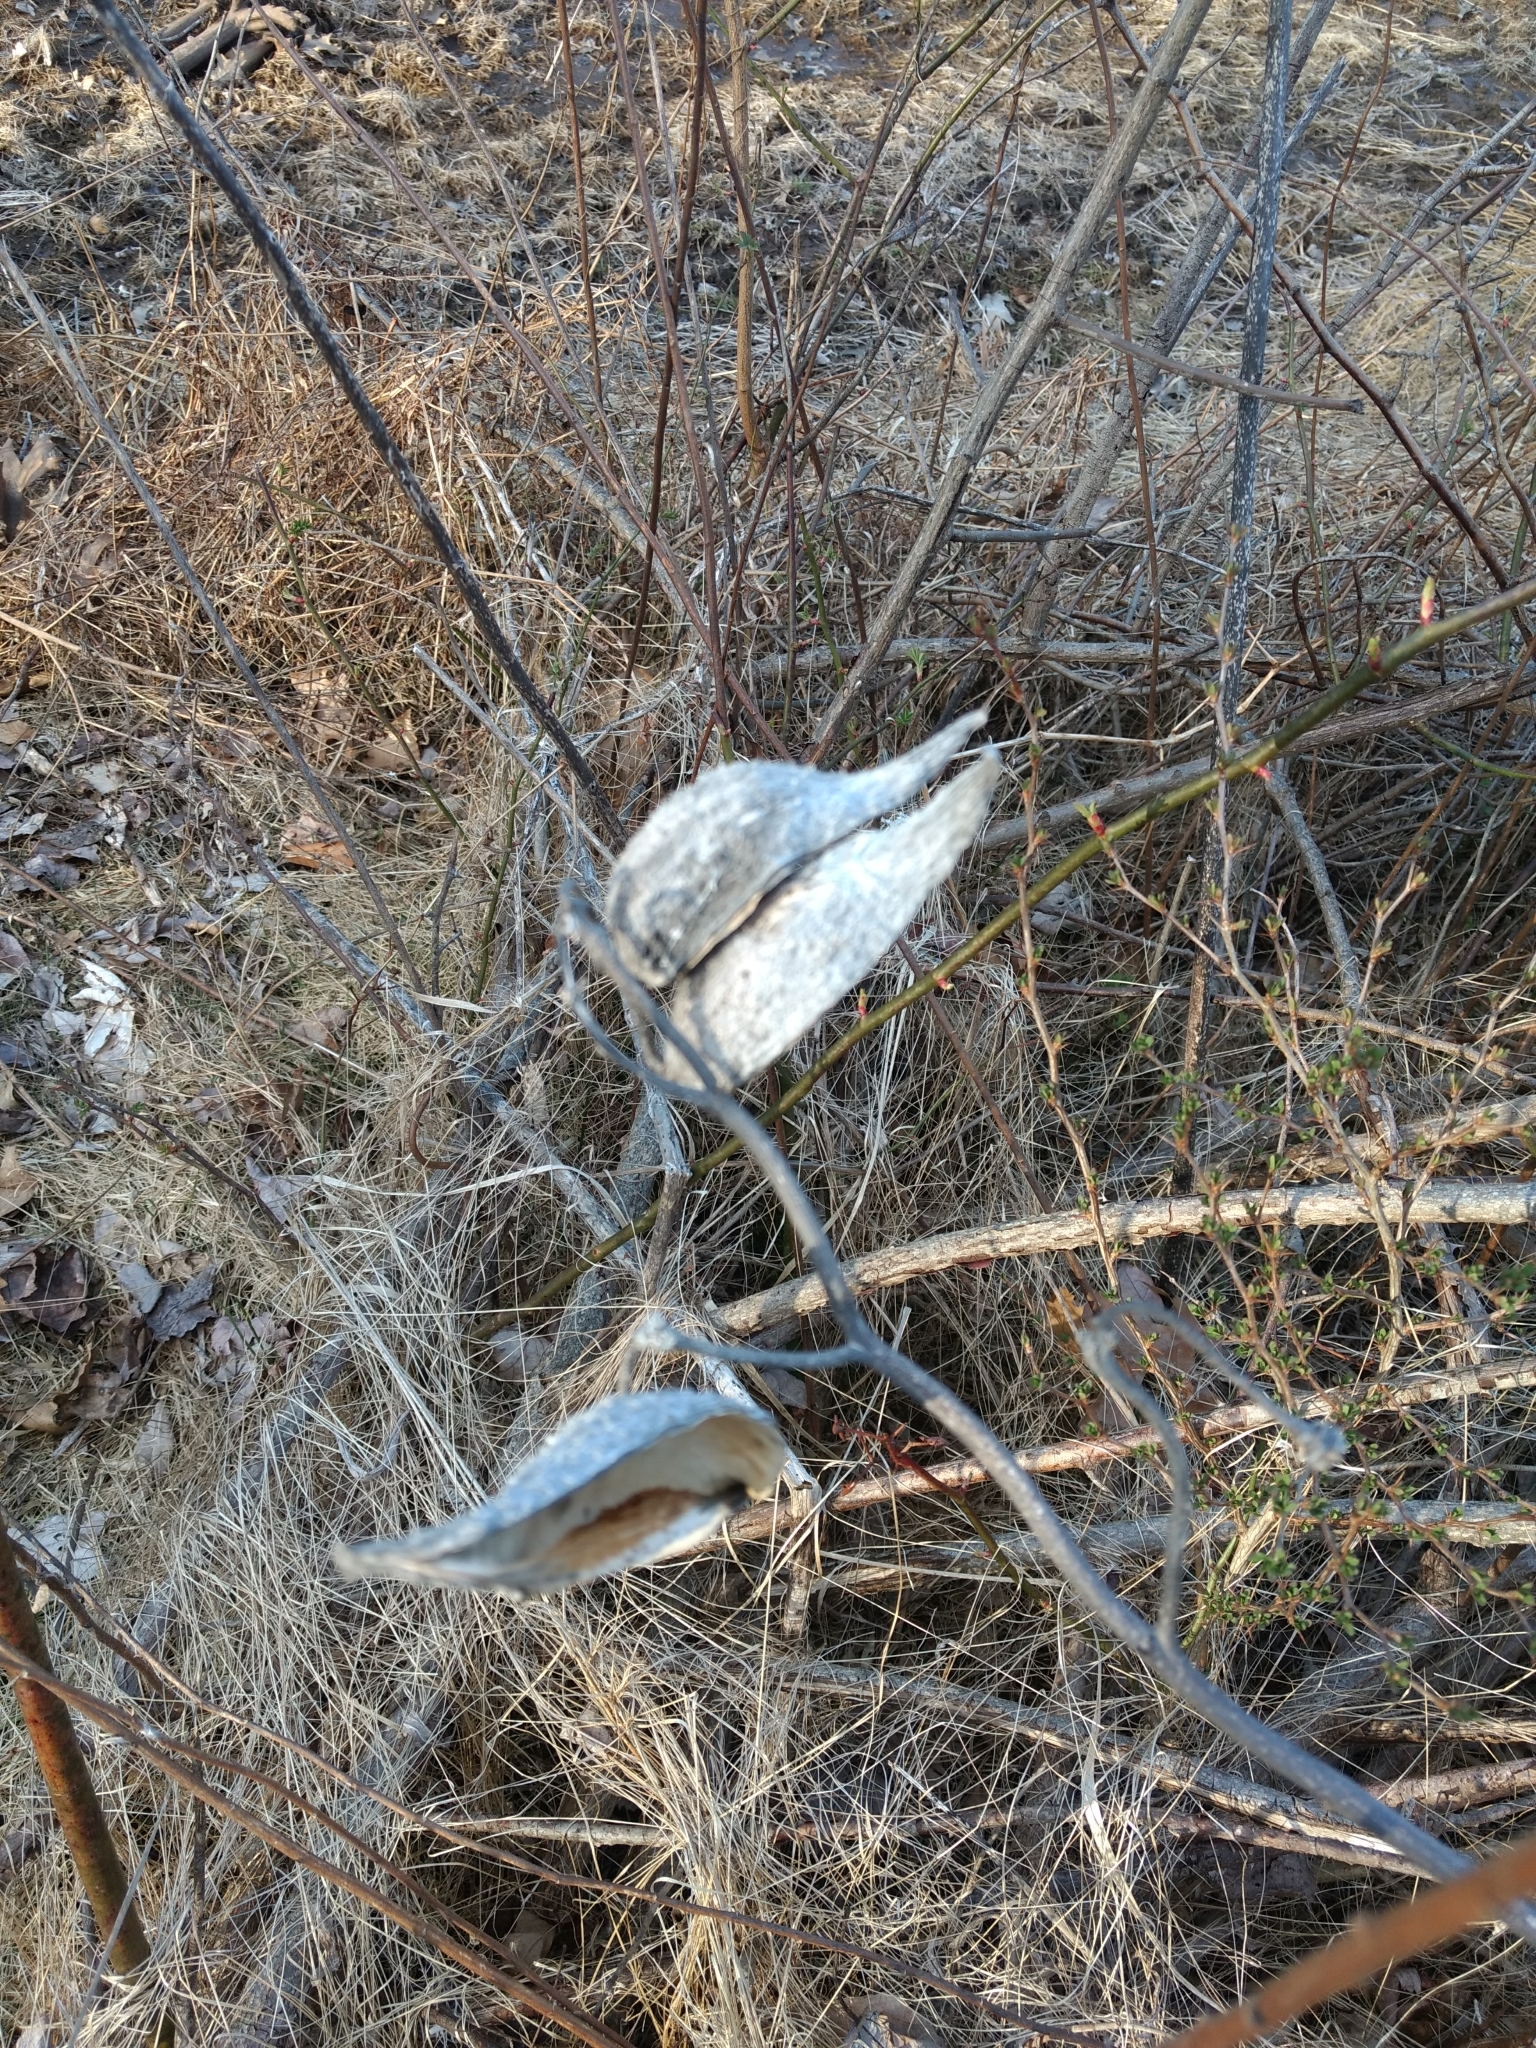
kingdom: Plantae
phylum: Tracheophyta
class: Magnoliopsida
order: Gentianales
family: Apocynaceae
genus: Asclepias
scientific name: Asclepias syriaca
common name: Common milkweed
